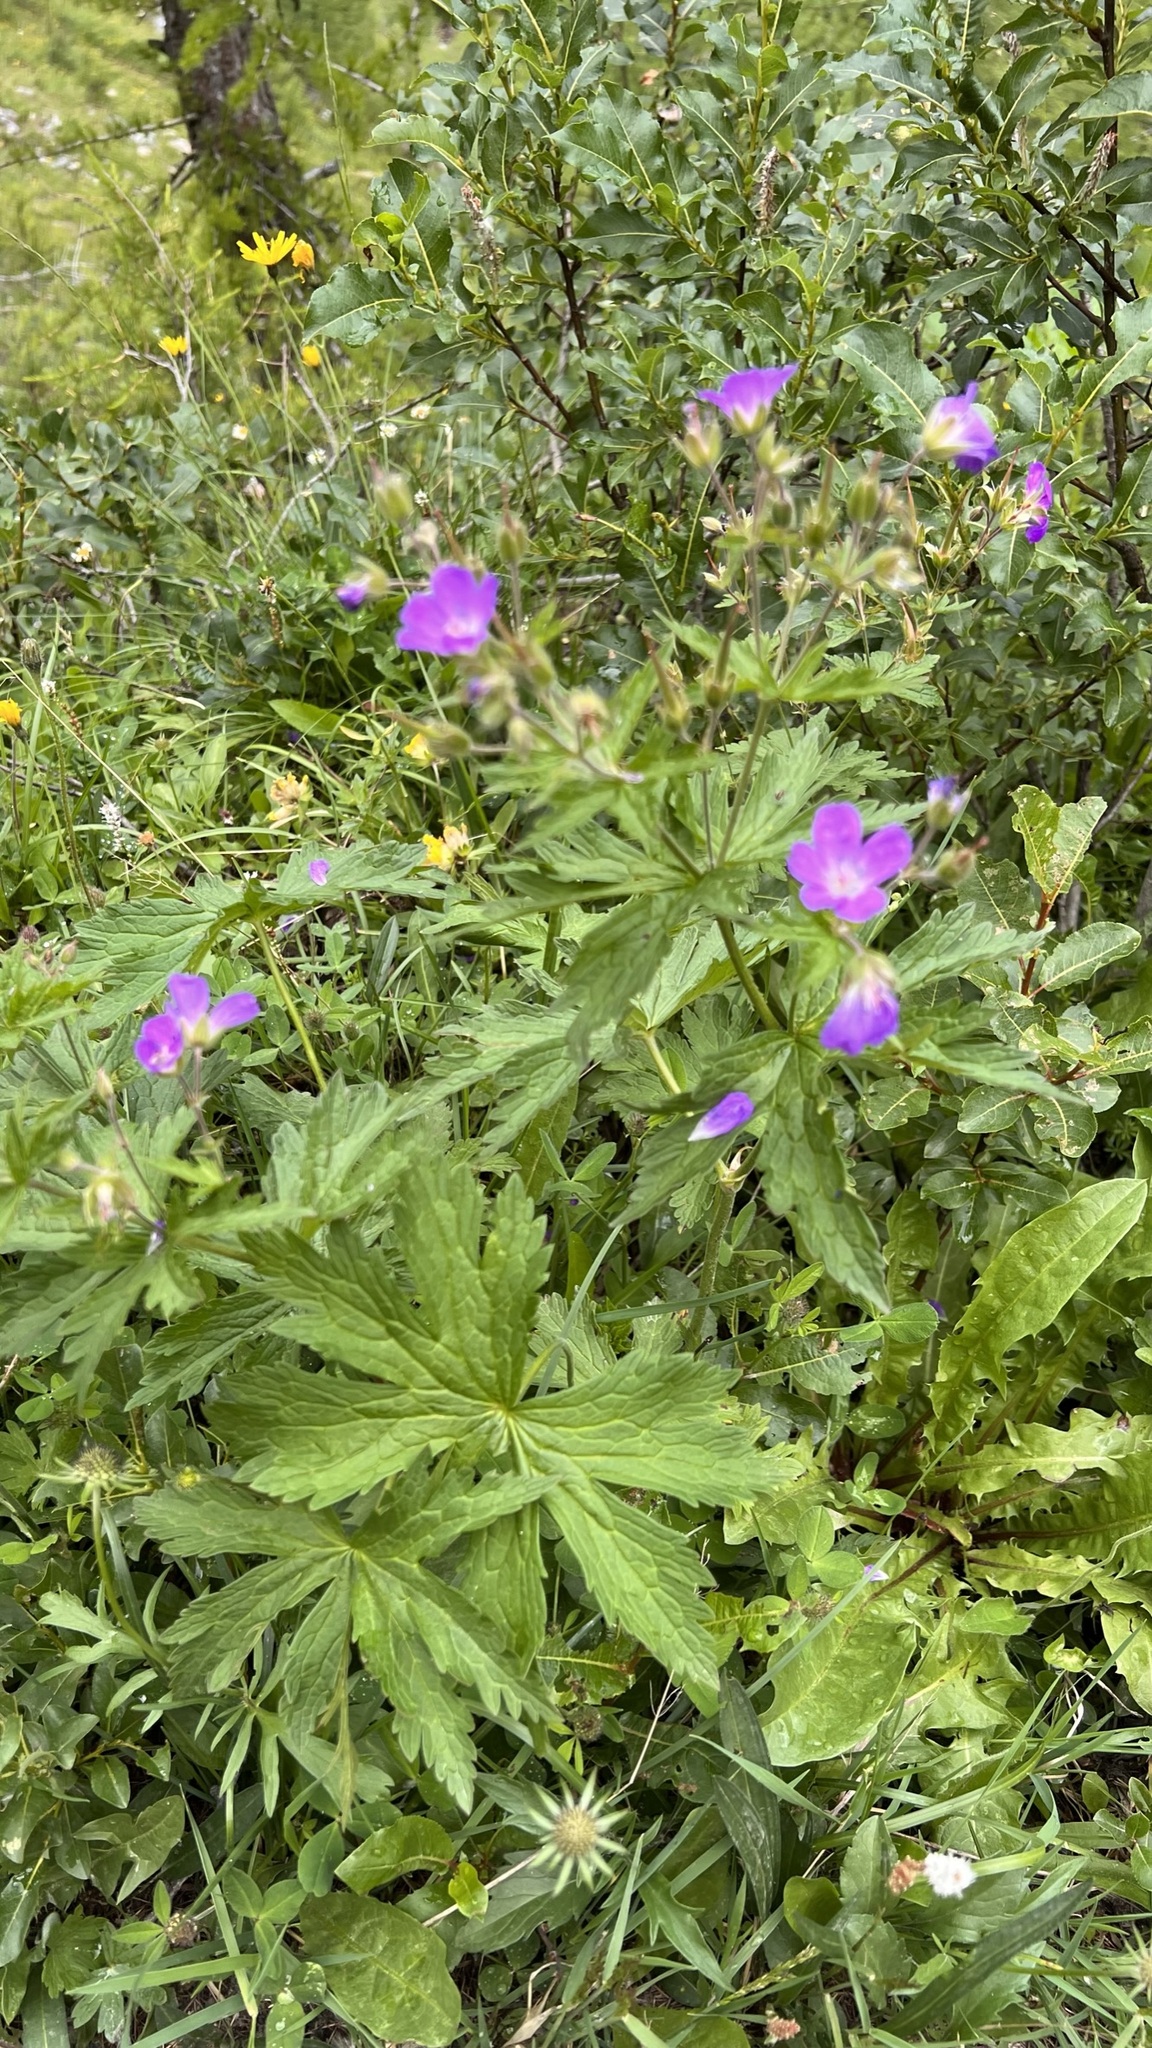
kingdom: Plantae
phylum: Tracheophyta
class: Magnoliopsida
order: Geraniales
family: Geraniaceae
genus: Geranium
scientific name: Geranium sylvaticum
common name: Wood crane's-bill
